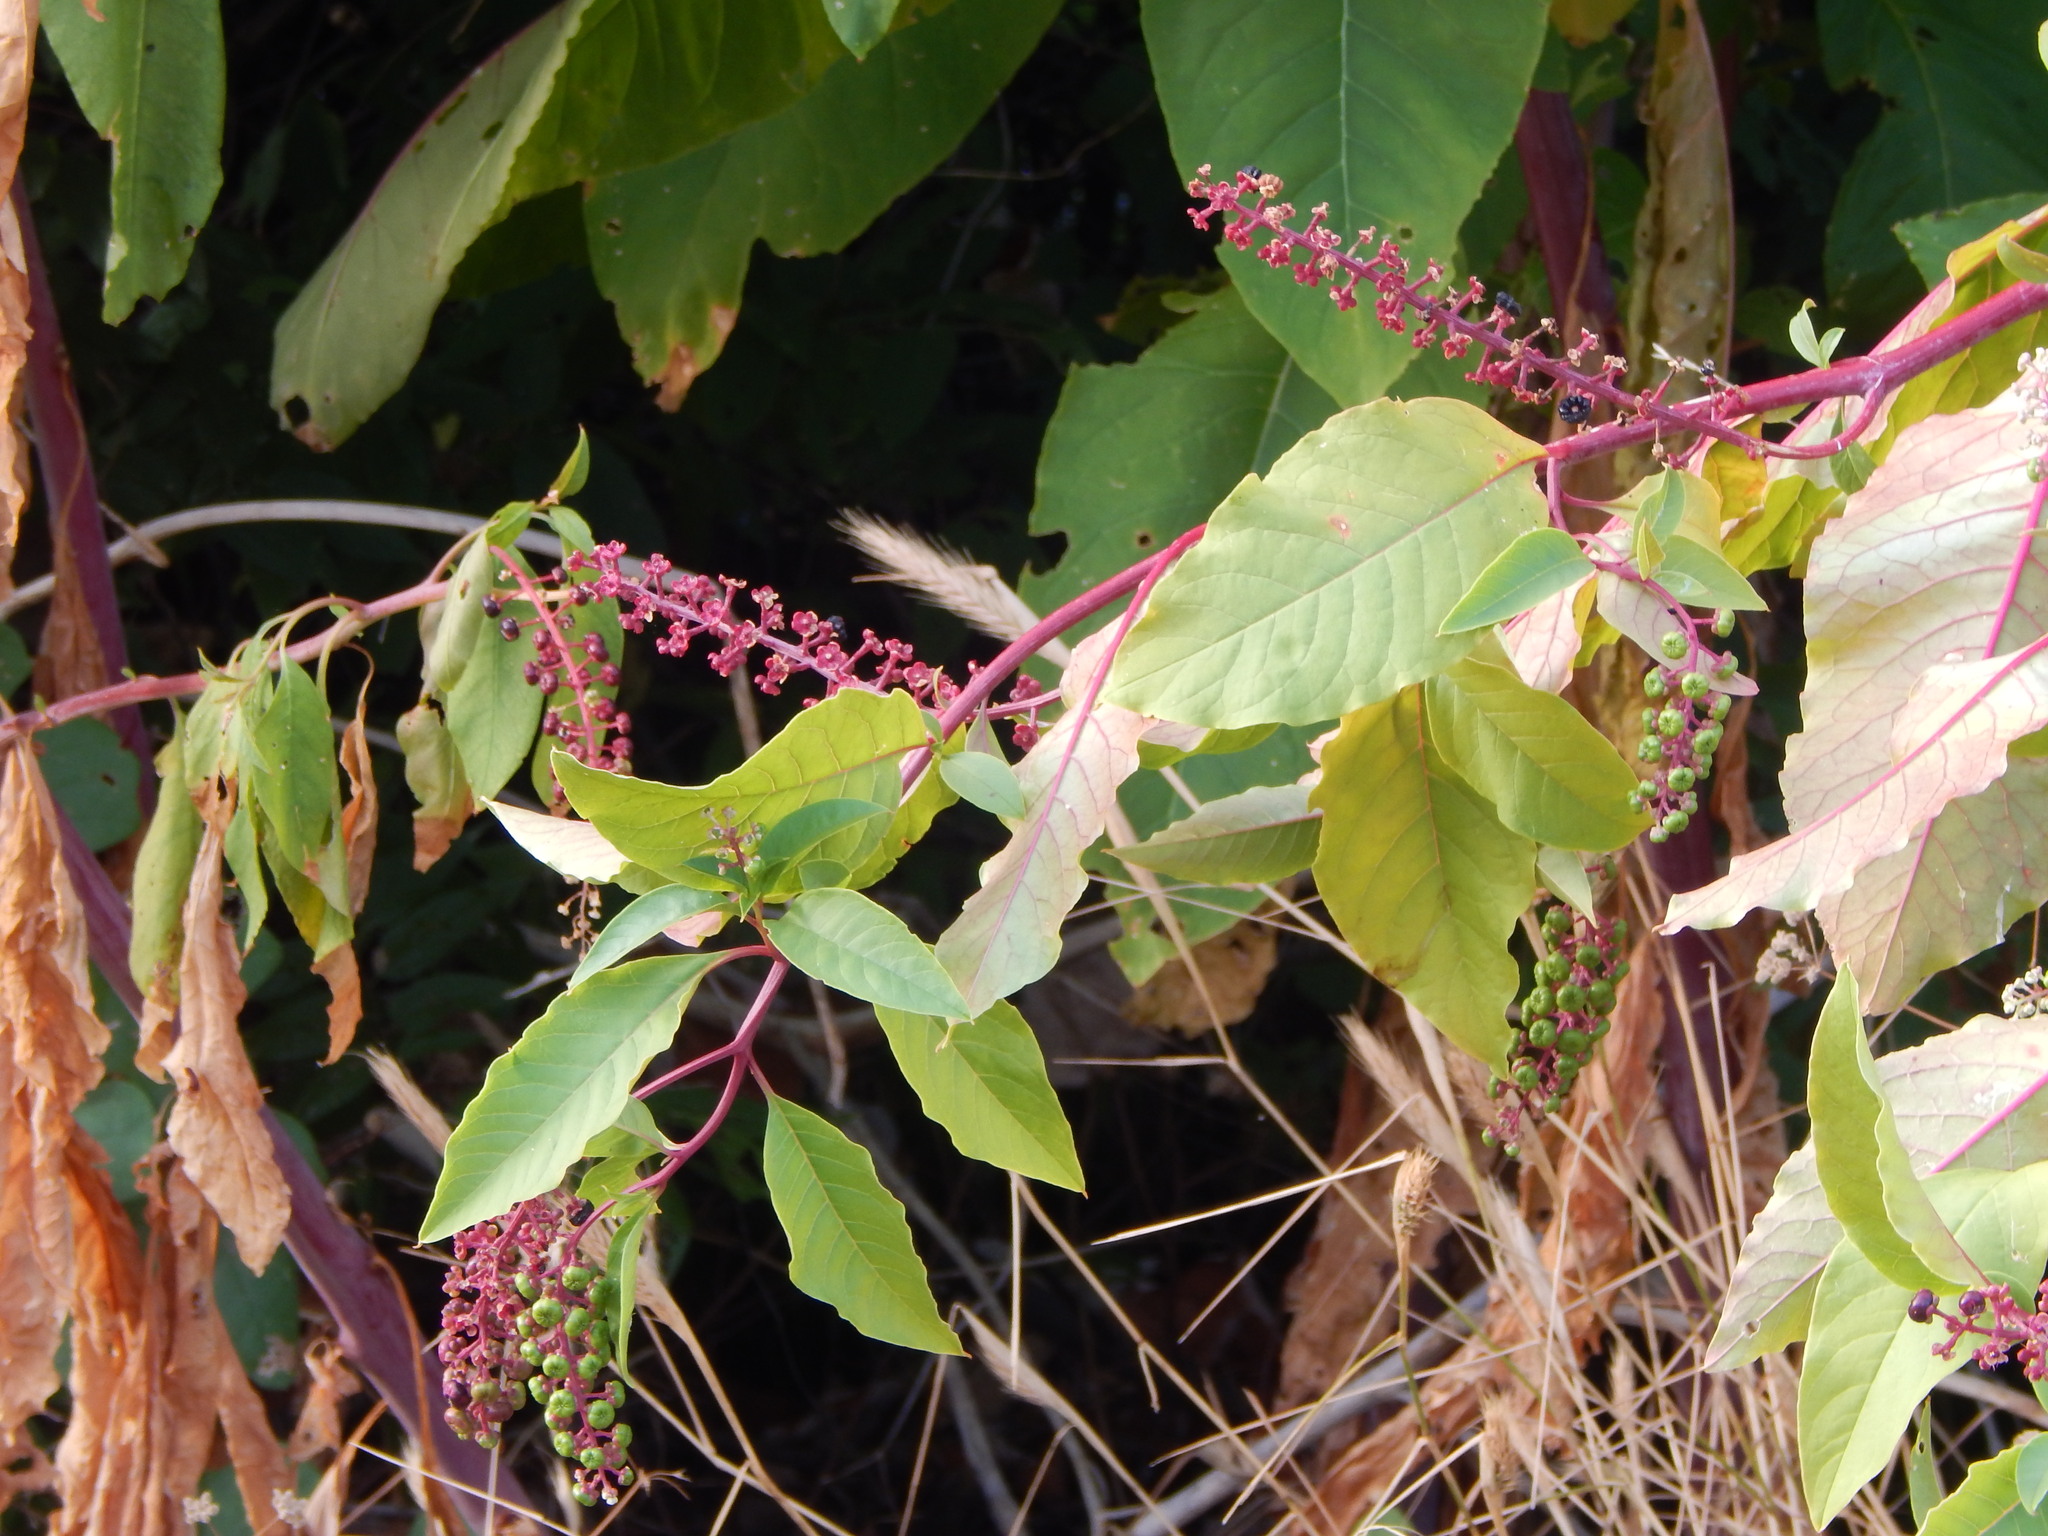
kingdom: Plantae
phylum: Tracheophyta
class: Magnoliopsida
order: Caryophyllales
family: Phytolaccaceae
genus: Phytolacca
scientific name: Phytolacca americana
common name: American pokeweed
